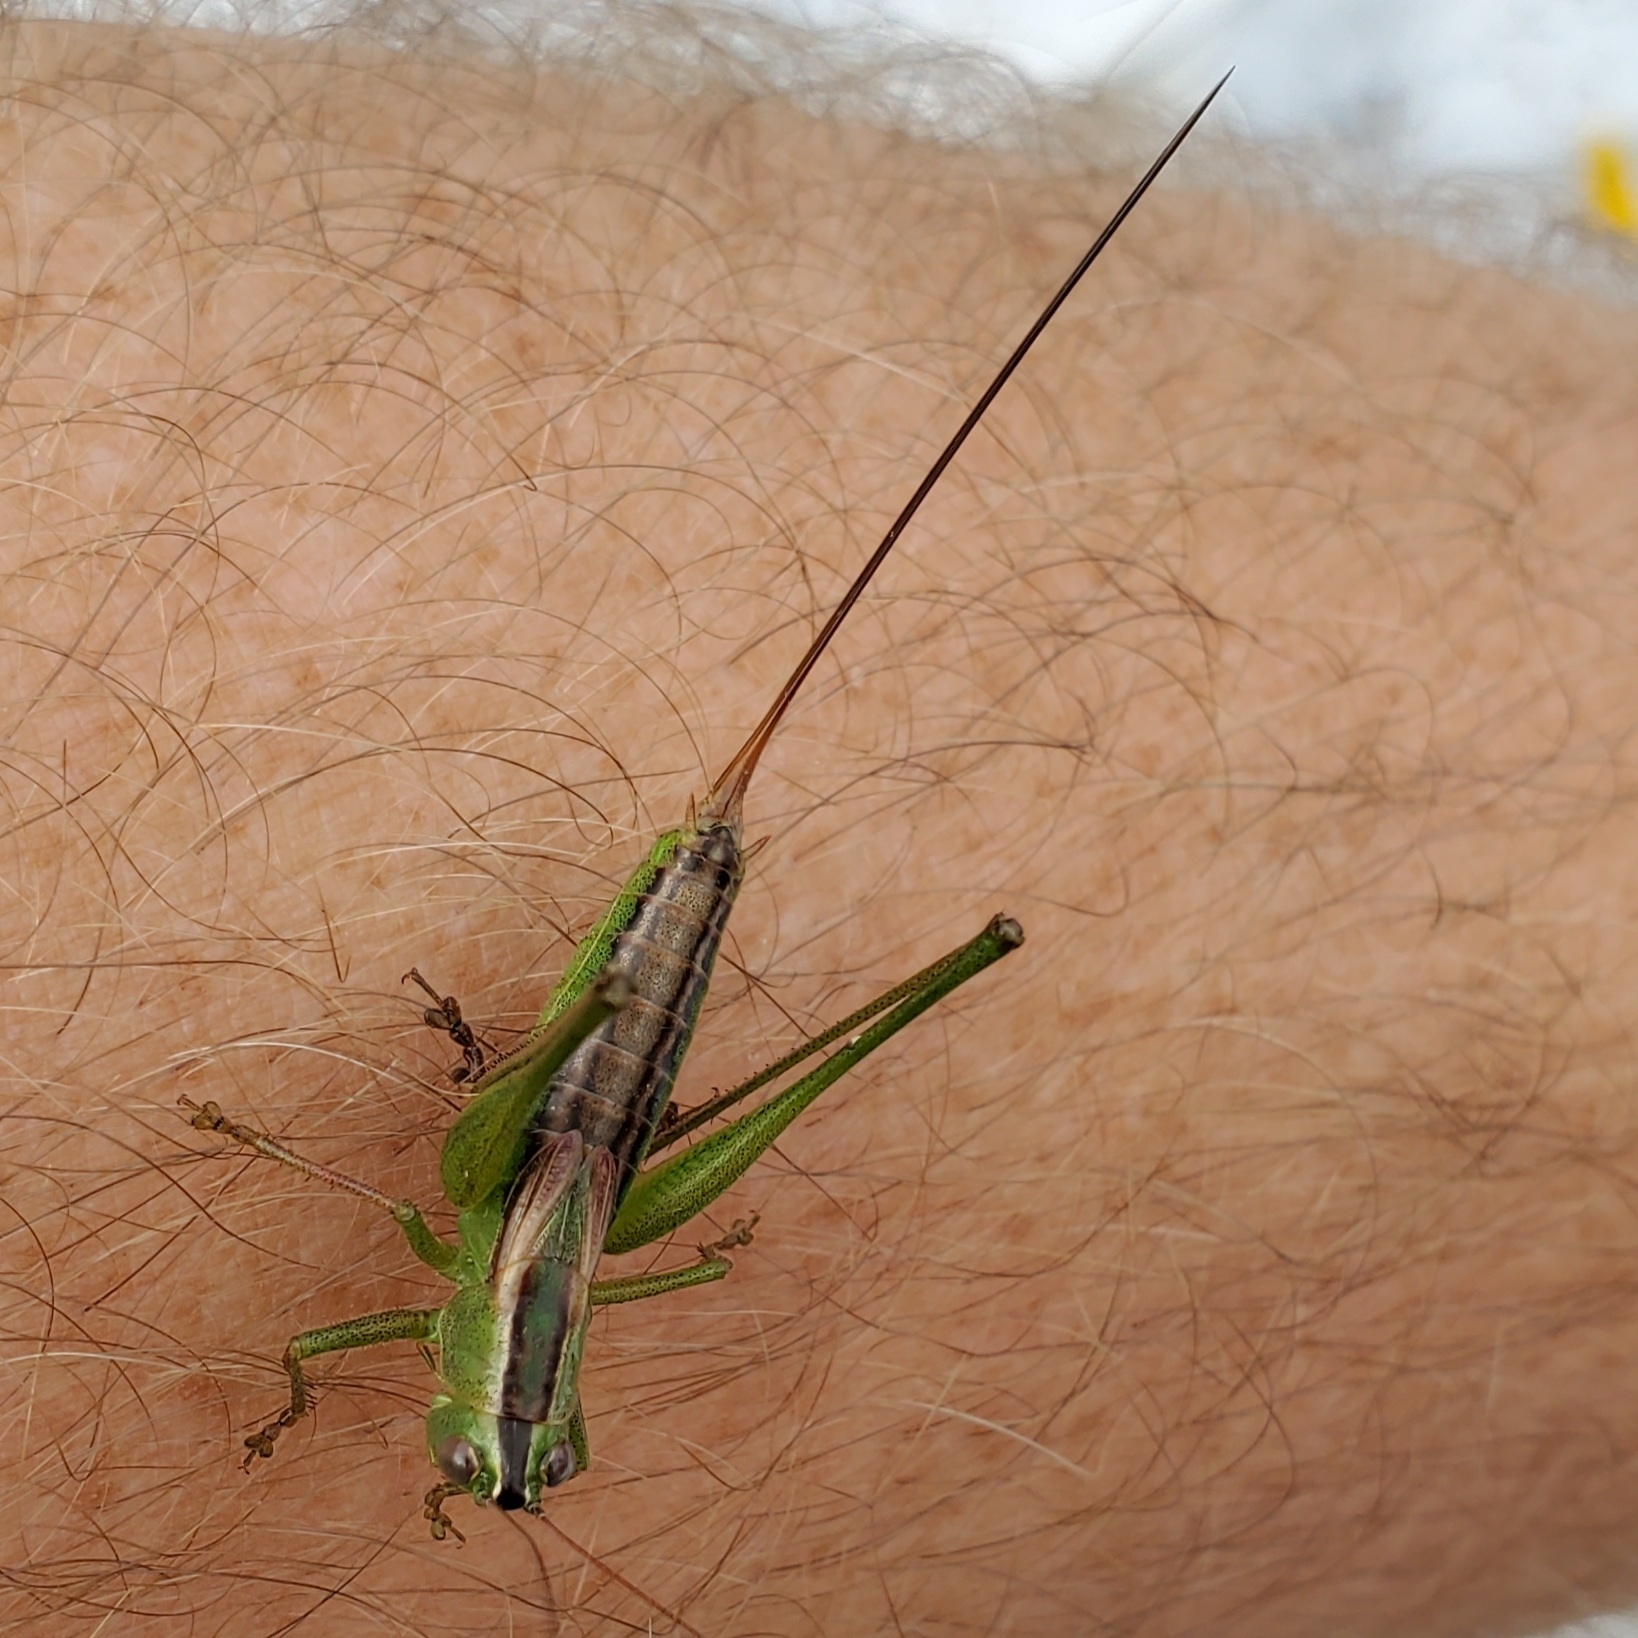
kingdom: Animalia
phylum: Arthropoda
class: Insecta
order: Orthoptera
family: Tettigoniidae
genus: Conocephalus
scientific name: Conocephalus strictus
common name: Straight-lanced katydid
